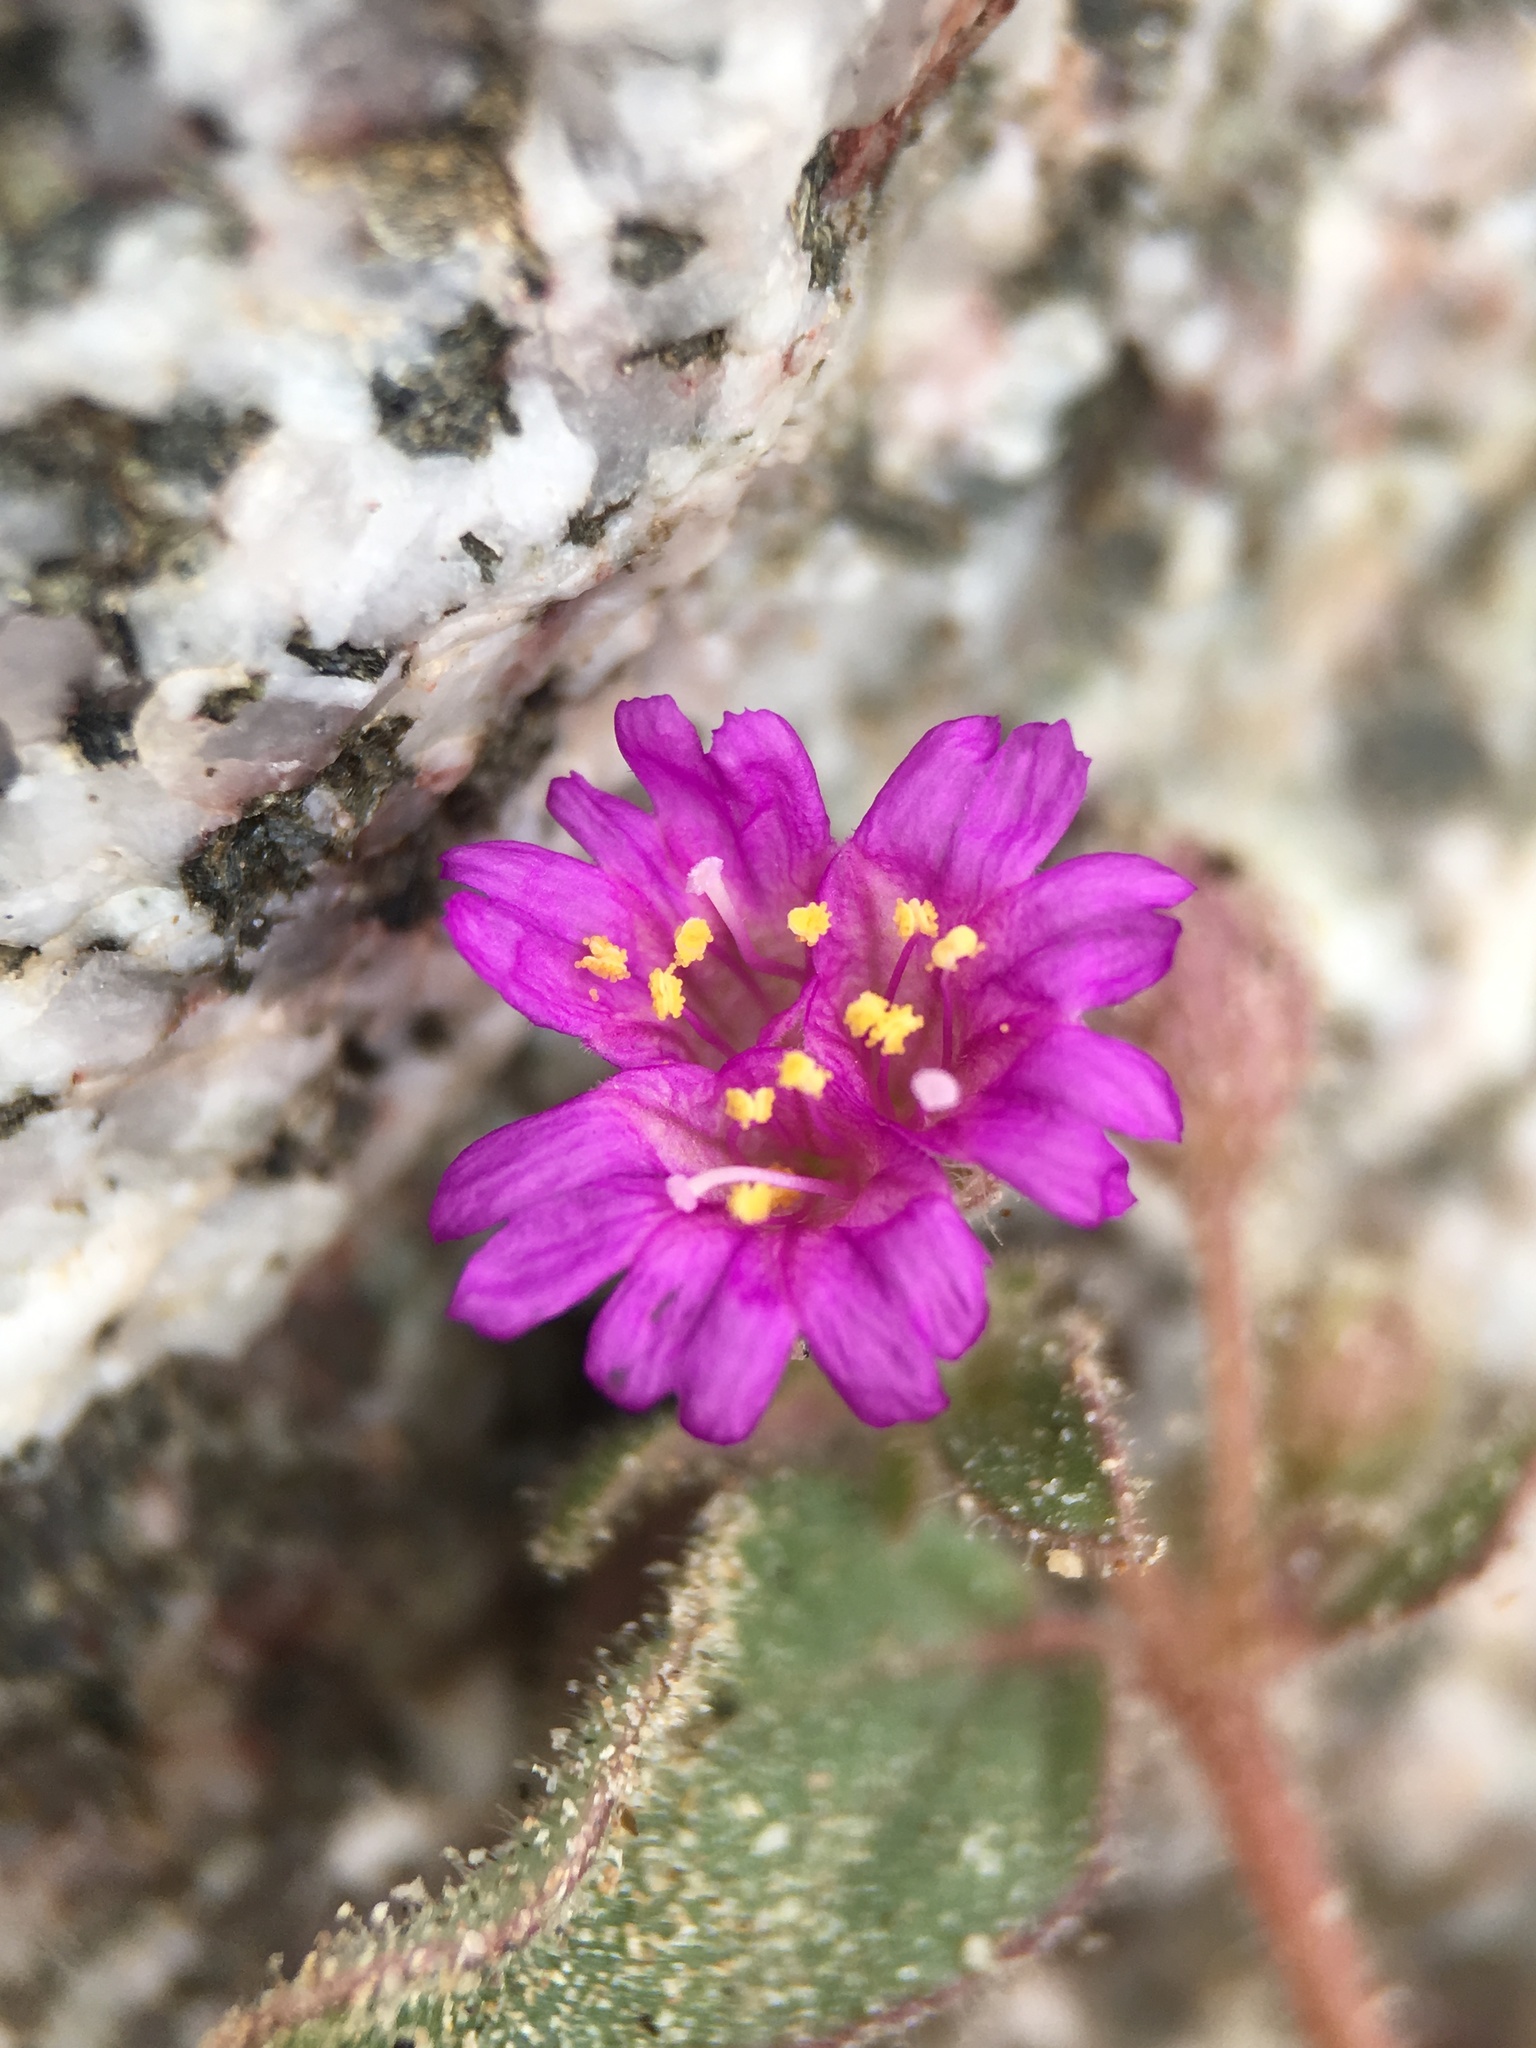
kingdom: Plantae
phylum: Tracheophyta
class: Magnoliopsida
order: Caryophyllales
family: Nyctaginaceae
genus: Allionia
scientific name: Allionia incarnata
